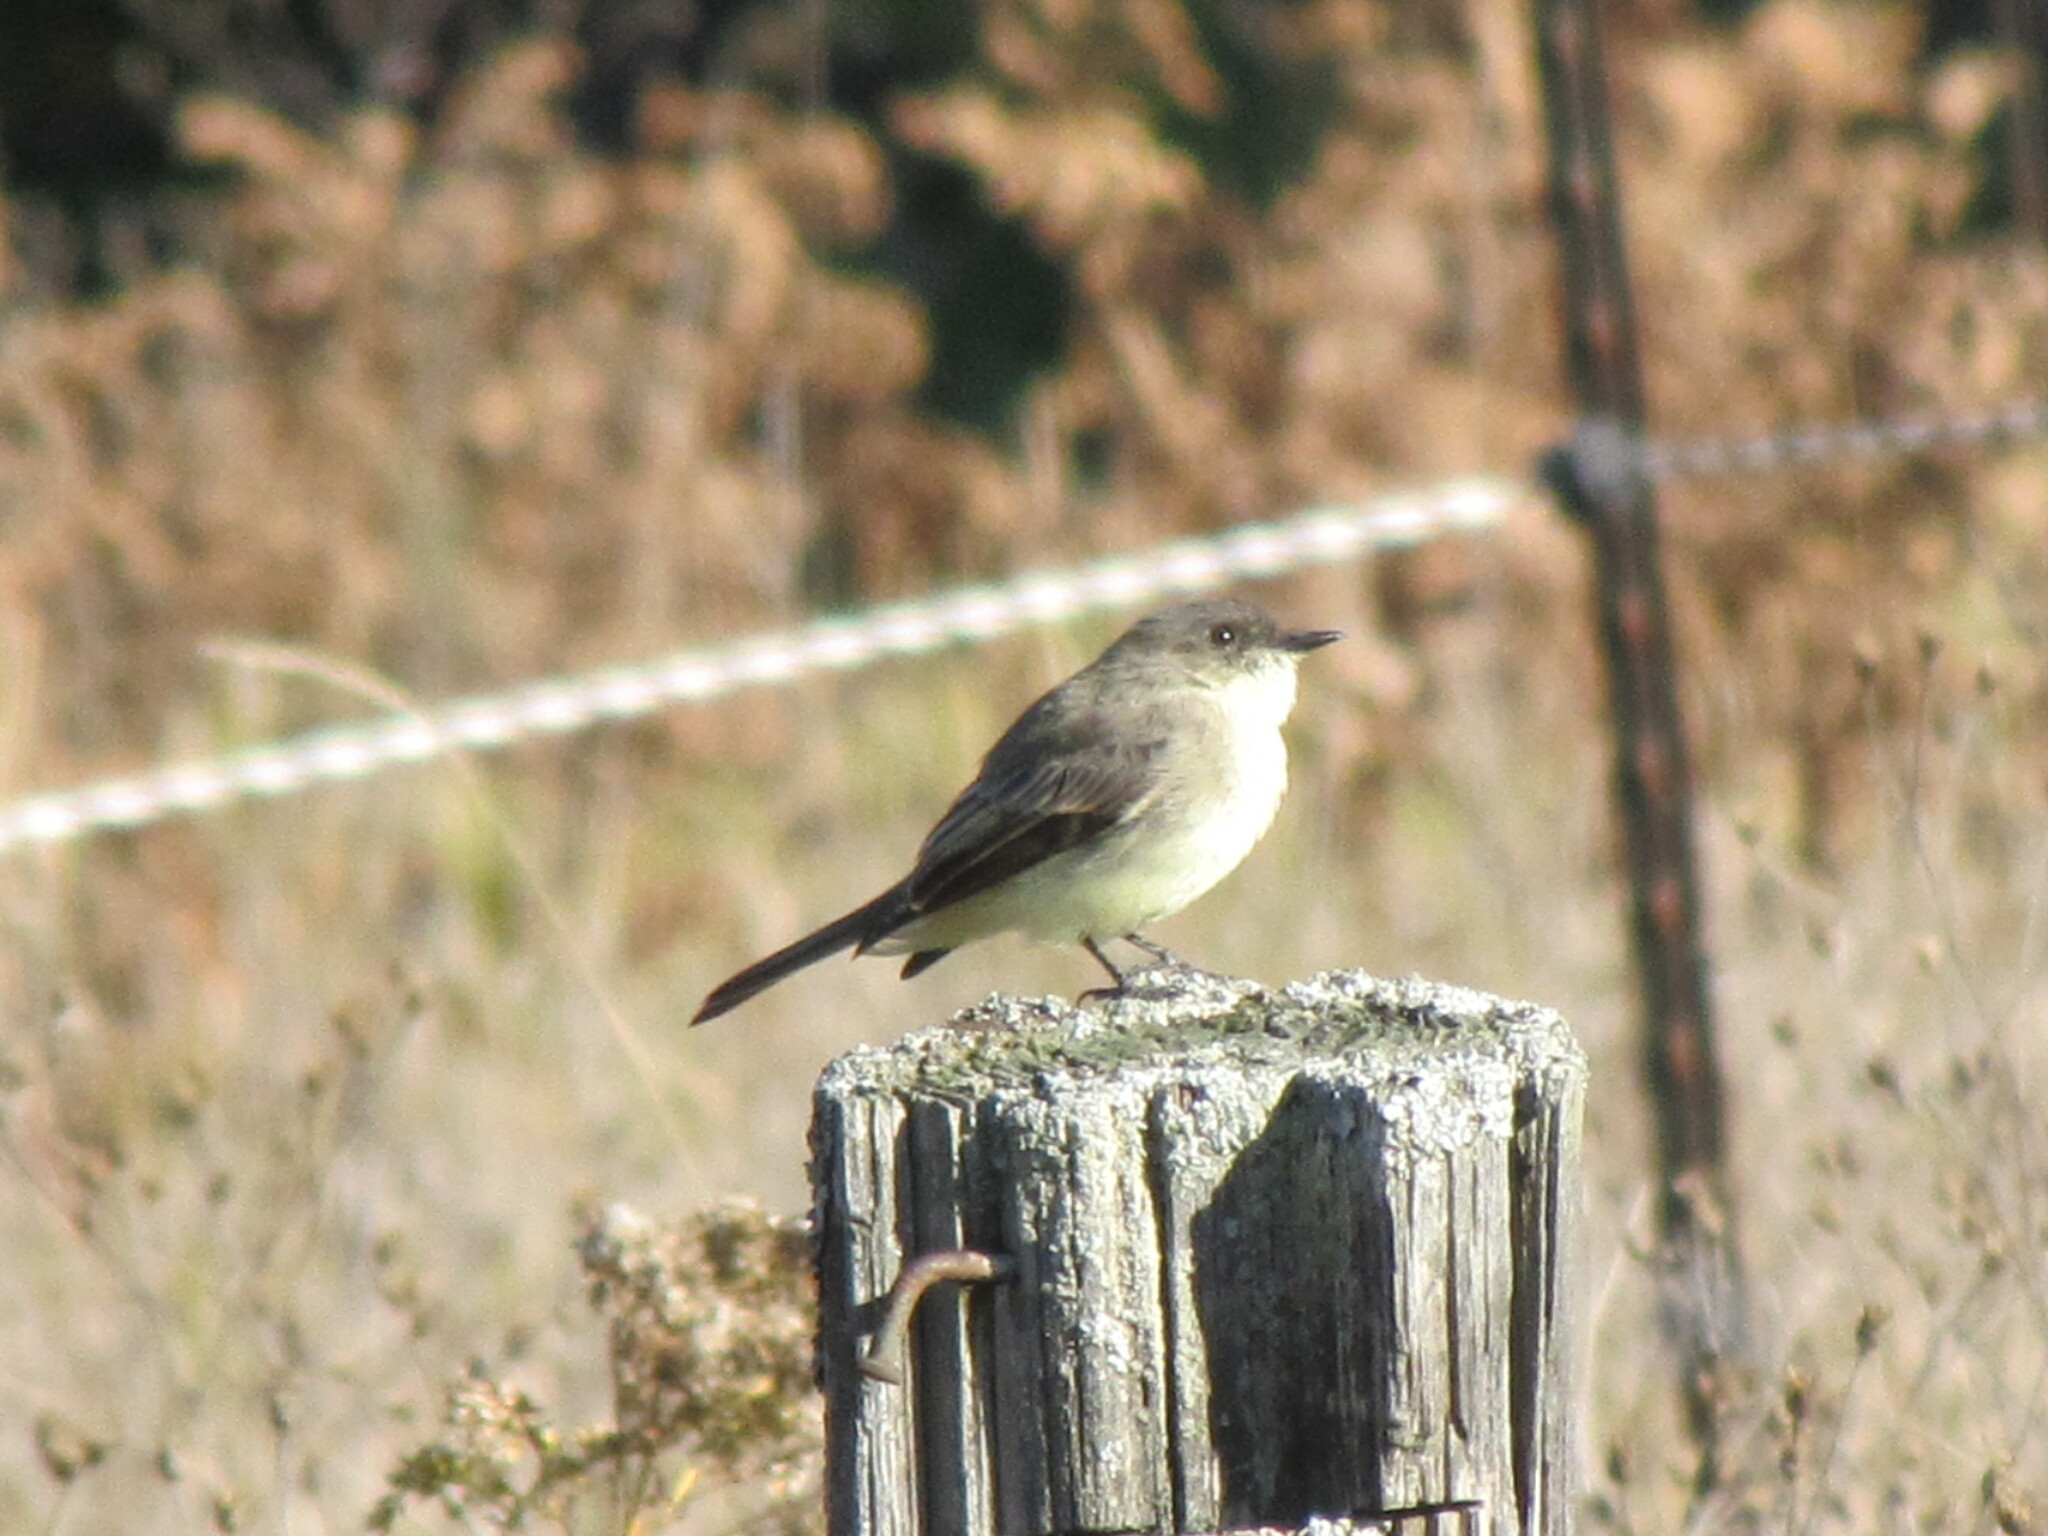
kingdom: Animalia
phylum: Chordata
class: Aves
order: Passeriformes
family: Tyrannidae
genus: Sayornis
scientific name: Sayornis phoebe
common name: Eastern phoebe
